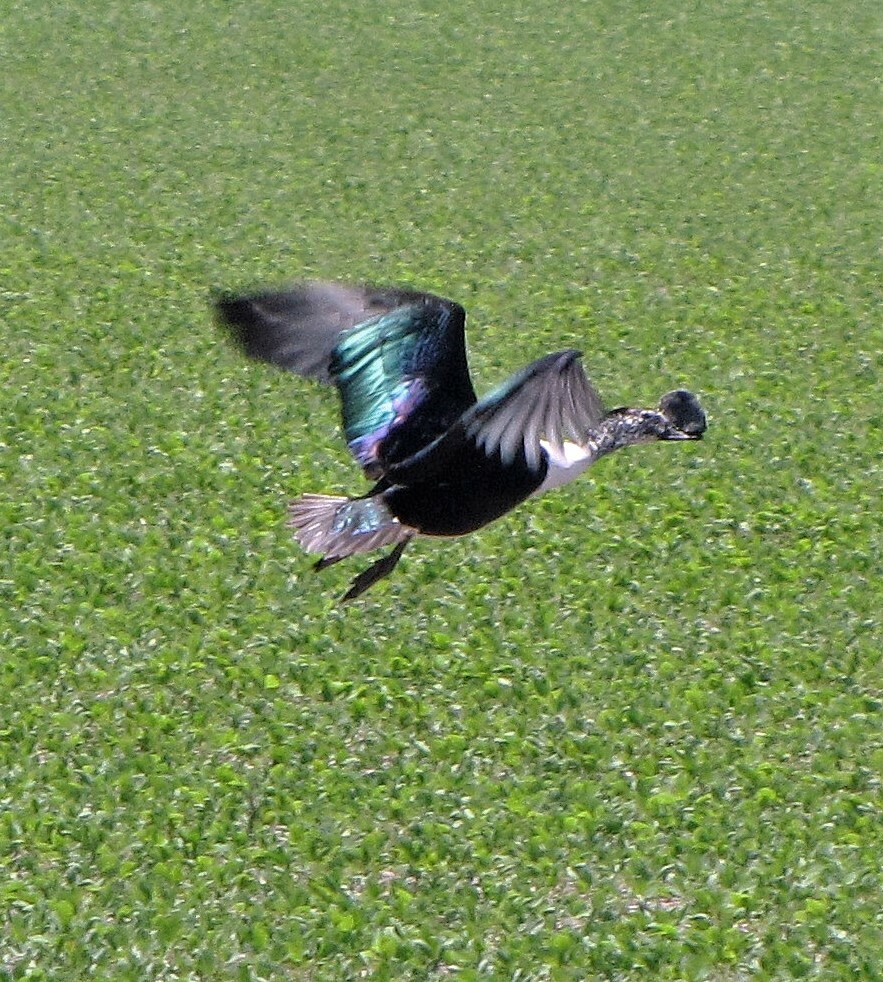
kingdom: Animalia
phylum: Chordata
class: Aves
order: Anseriformes
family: Anatidae
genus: Sarkidiornis
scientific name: Sarkidiornis sylvicola
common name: Comb duck
